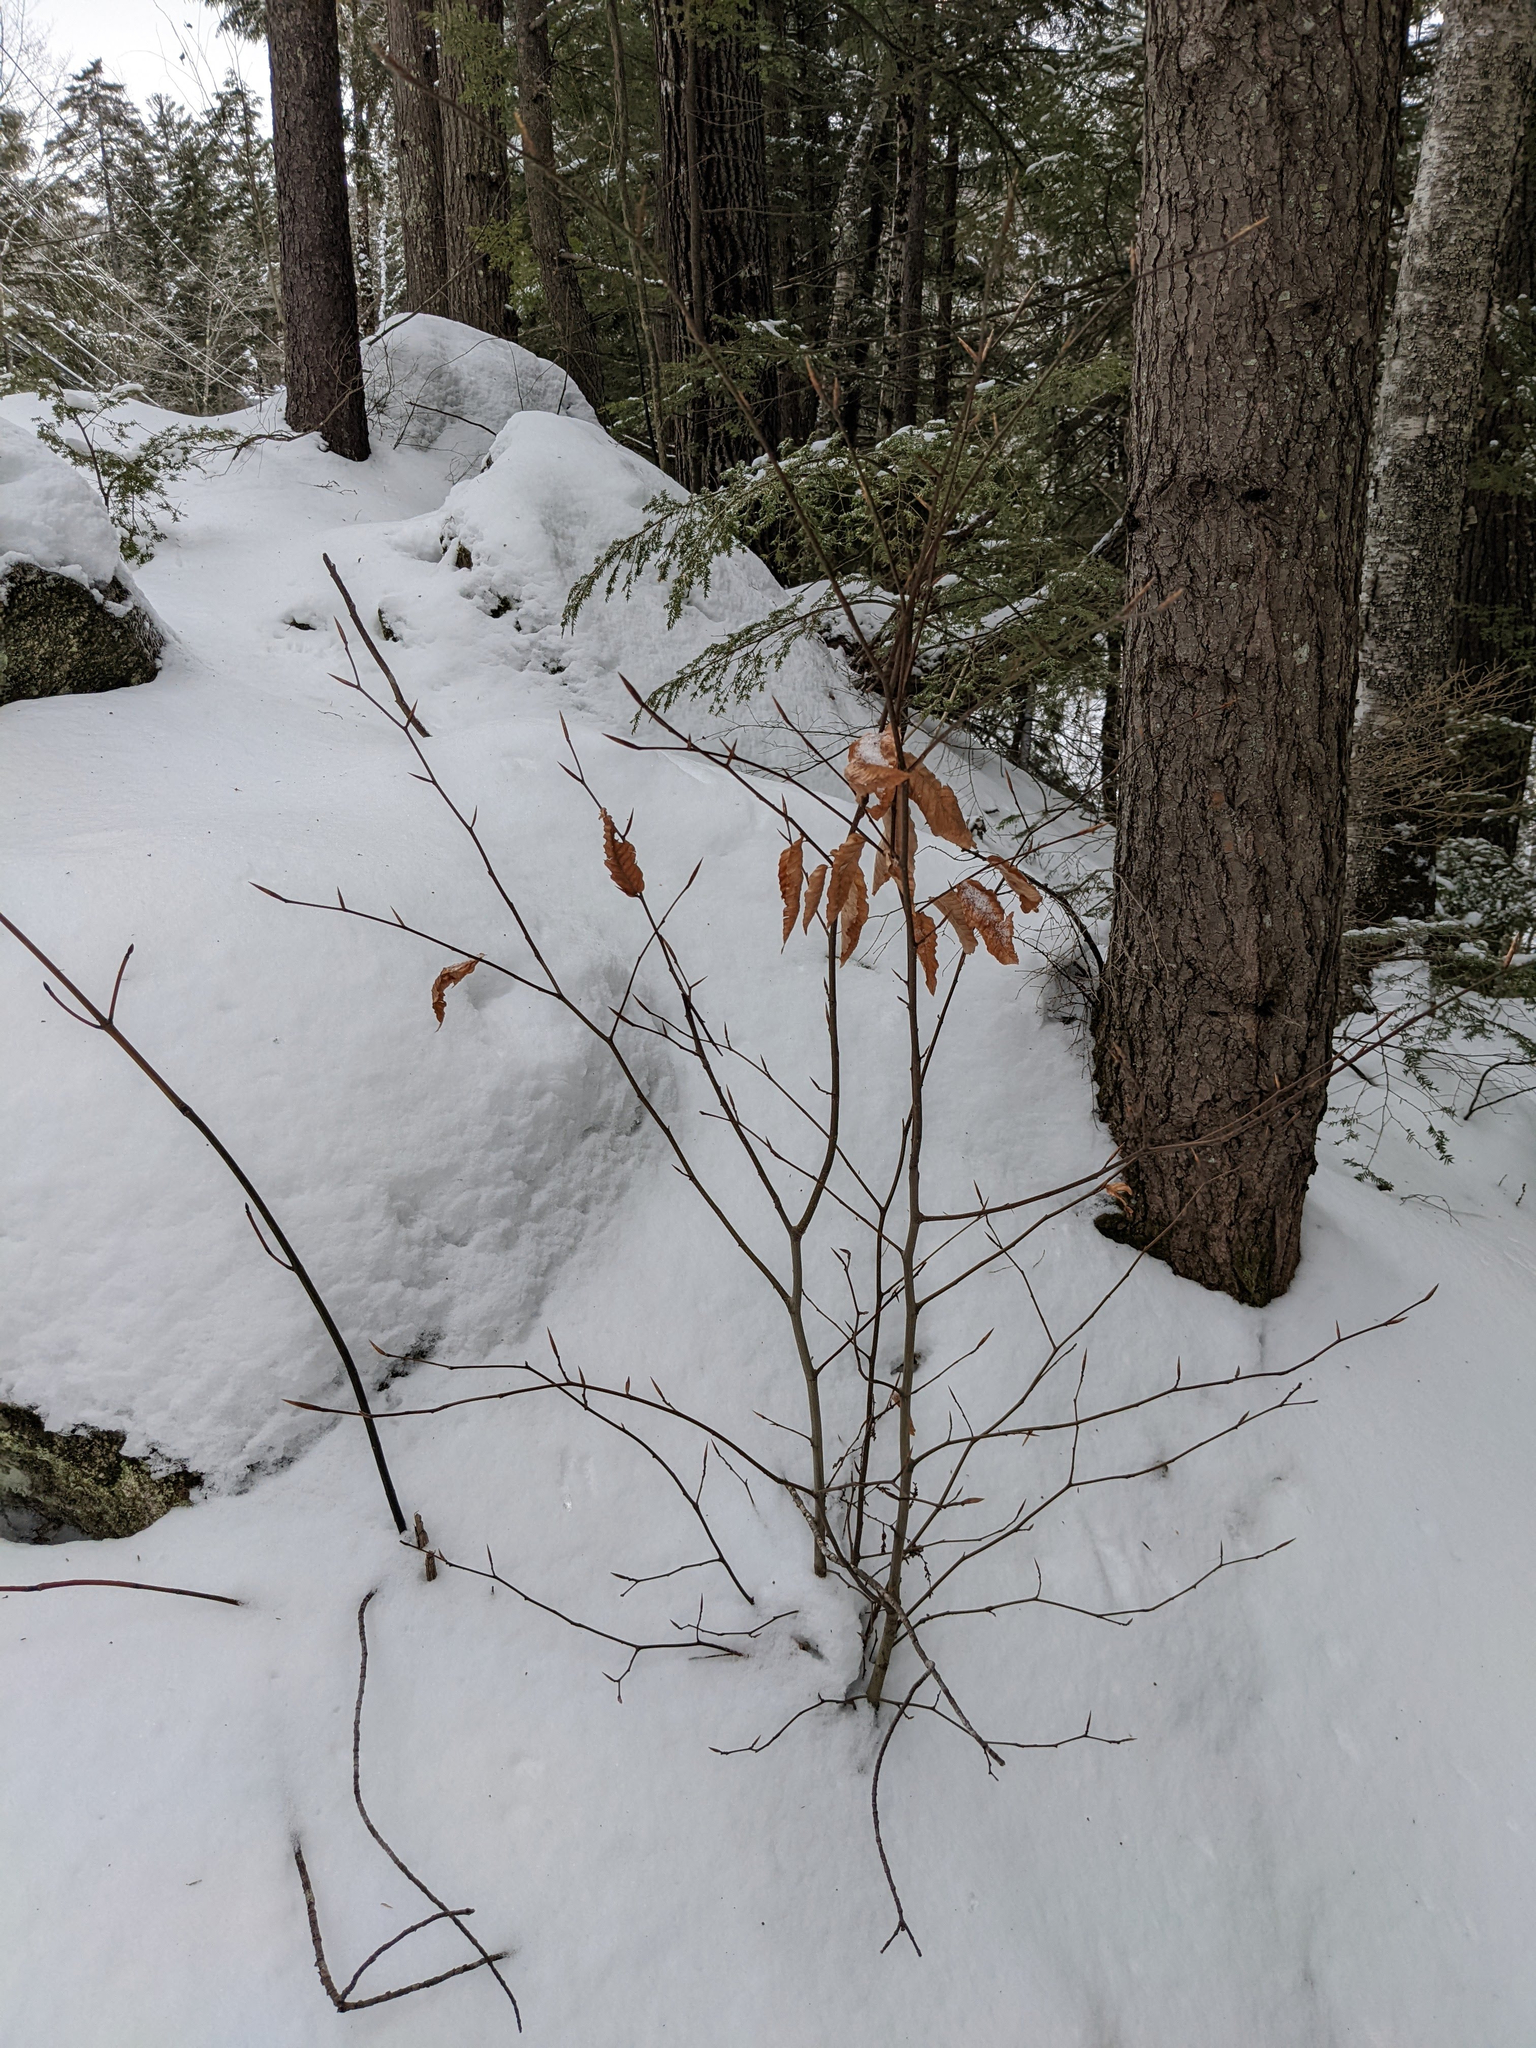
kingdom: Plantae
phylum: Tracheophyta
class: Magnoliopsida
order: Fagales
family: Fagaceae
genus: Fagus
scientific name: Fagus grandifolia
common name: American beech
